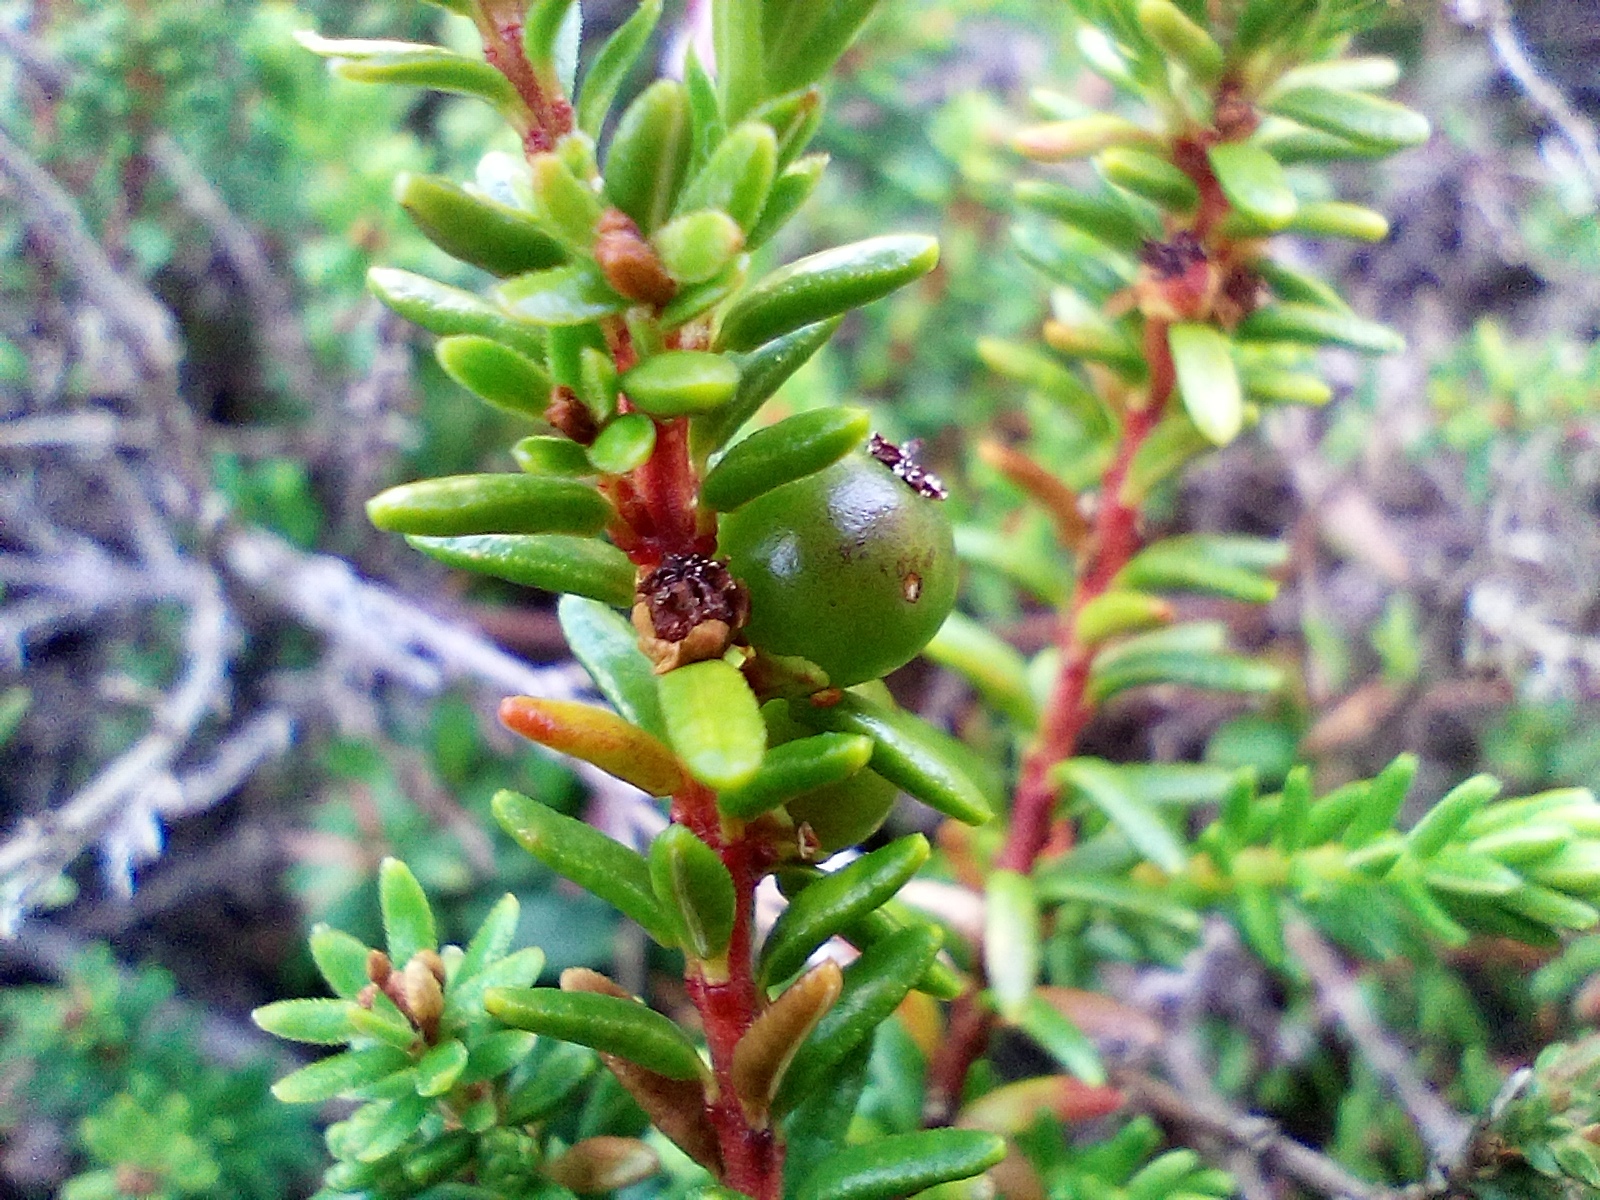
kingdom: Plantae
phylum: Tracheophyta
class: Magnoliopsida
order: Ericales
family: Ericaceae
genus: Empetrum
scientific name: Empetrum nigrum
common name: Black crowberry
